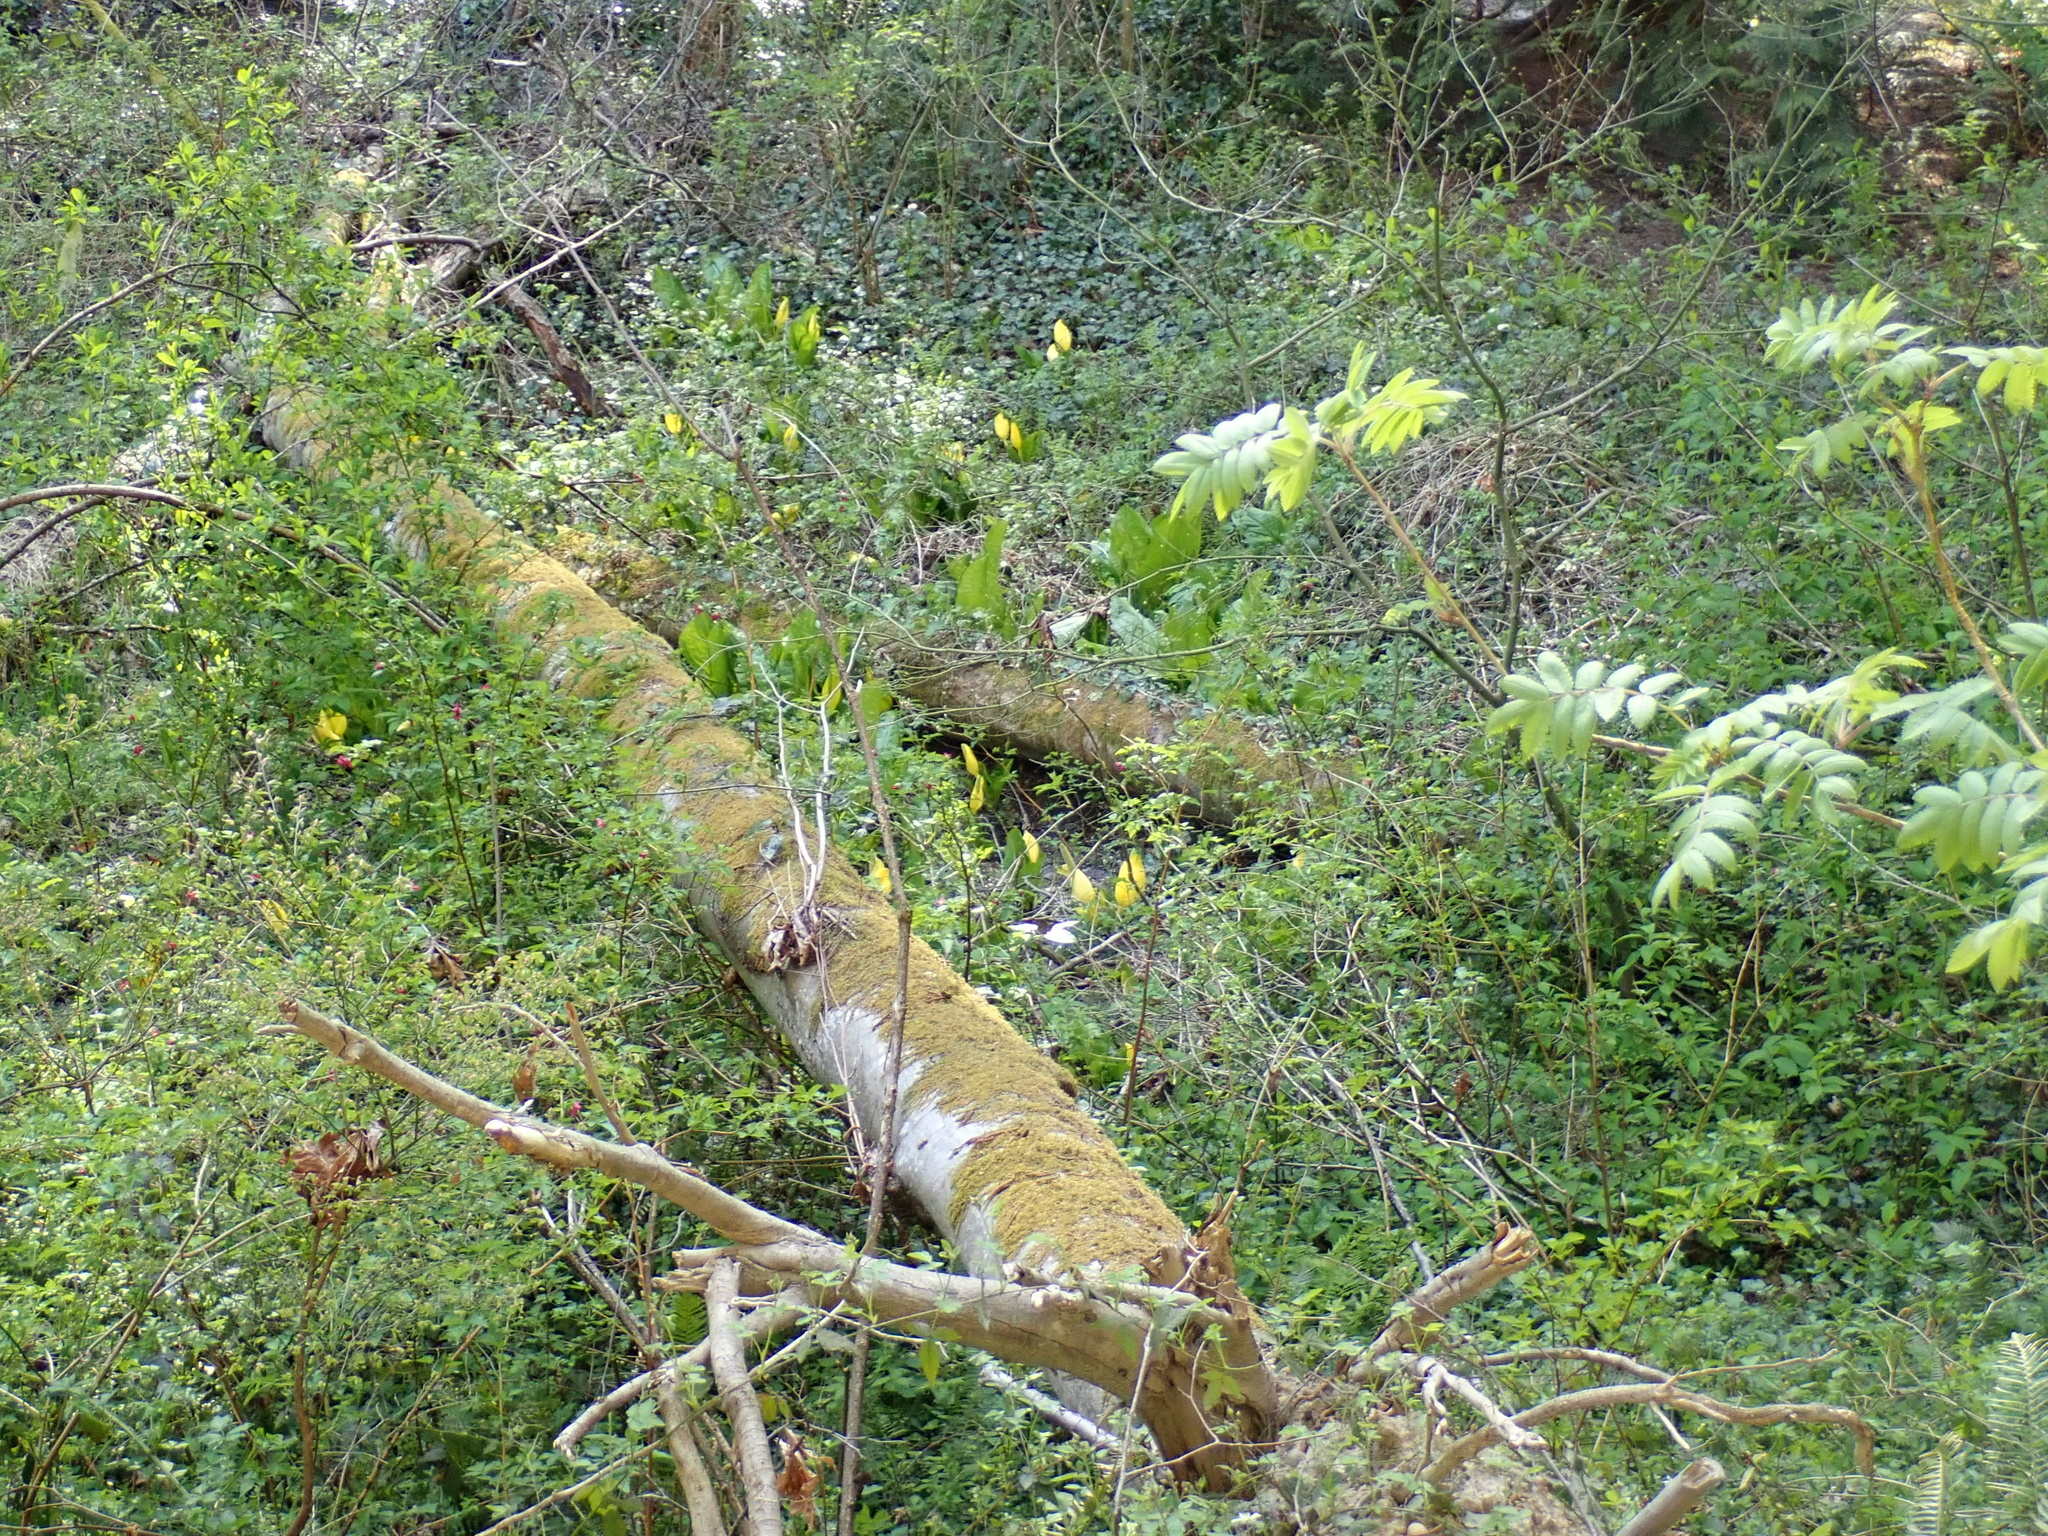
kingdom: Plantae
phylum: Tracheophyta
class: Liliopsida
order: Alismatales
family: Araceae
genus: Lysichiton
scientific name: Lysichiton americanus
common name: American skunk cabbage
